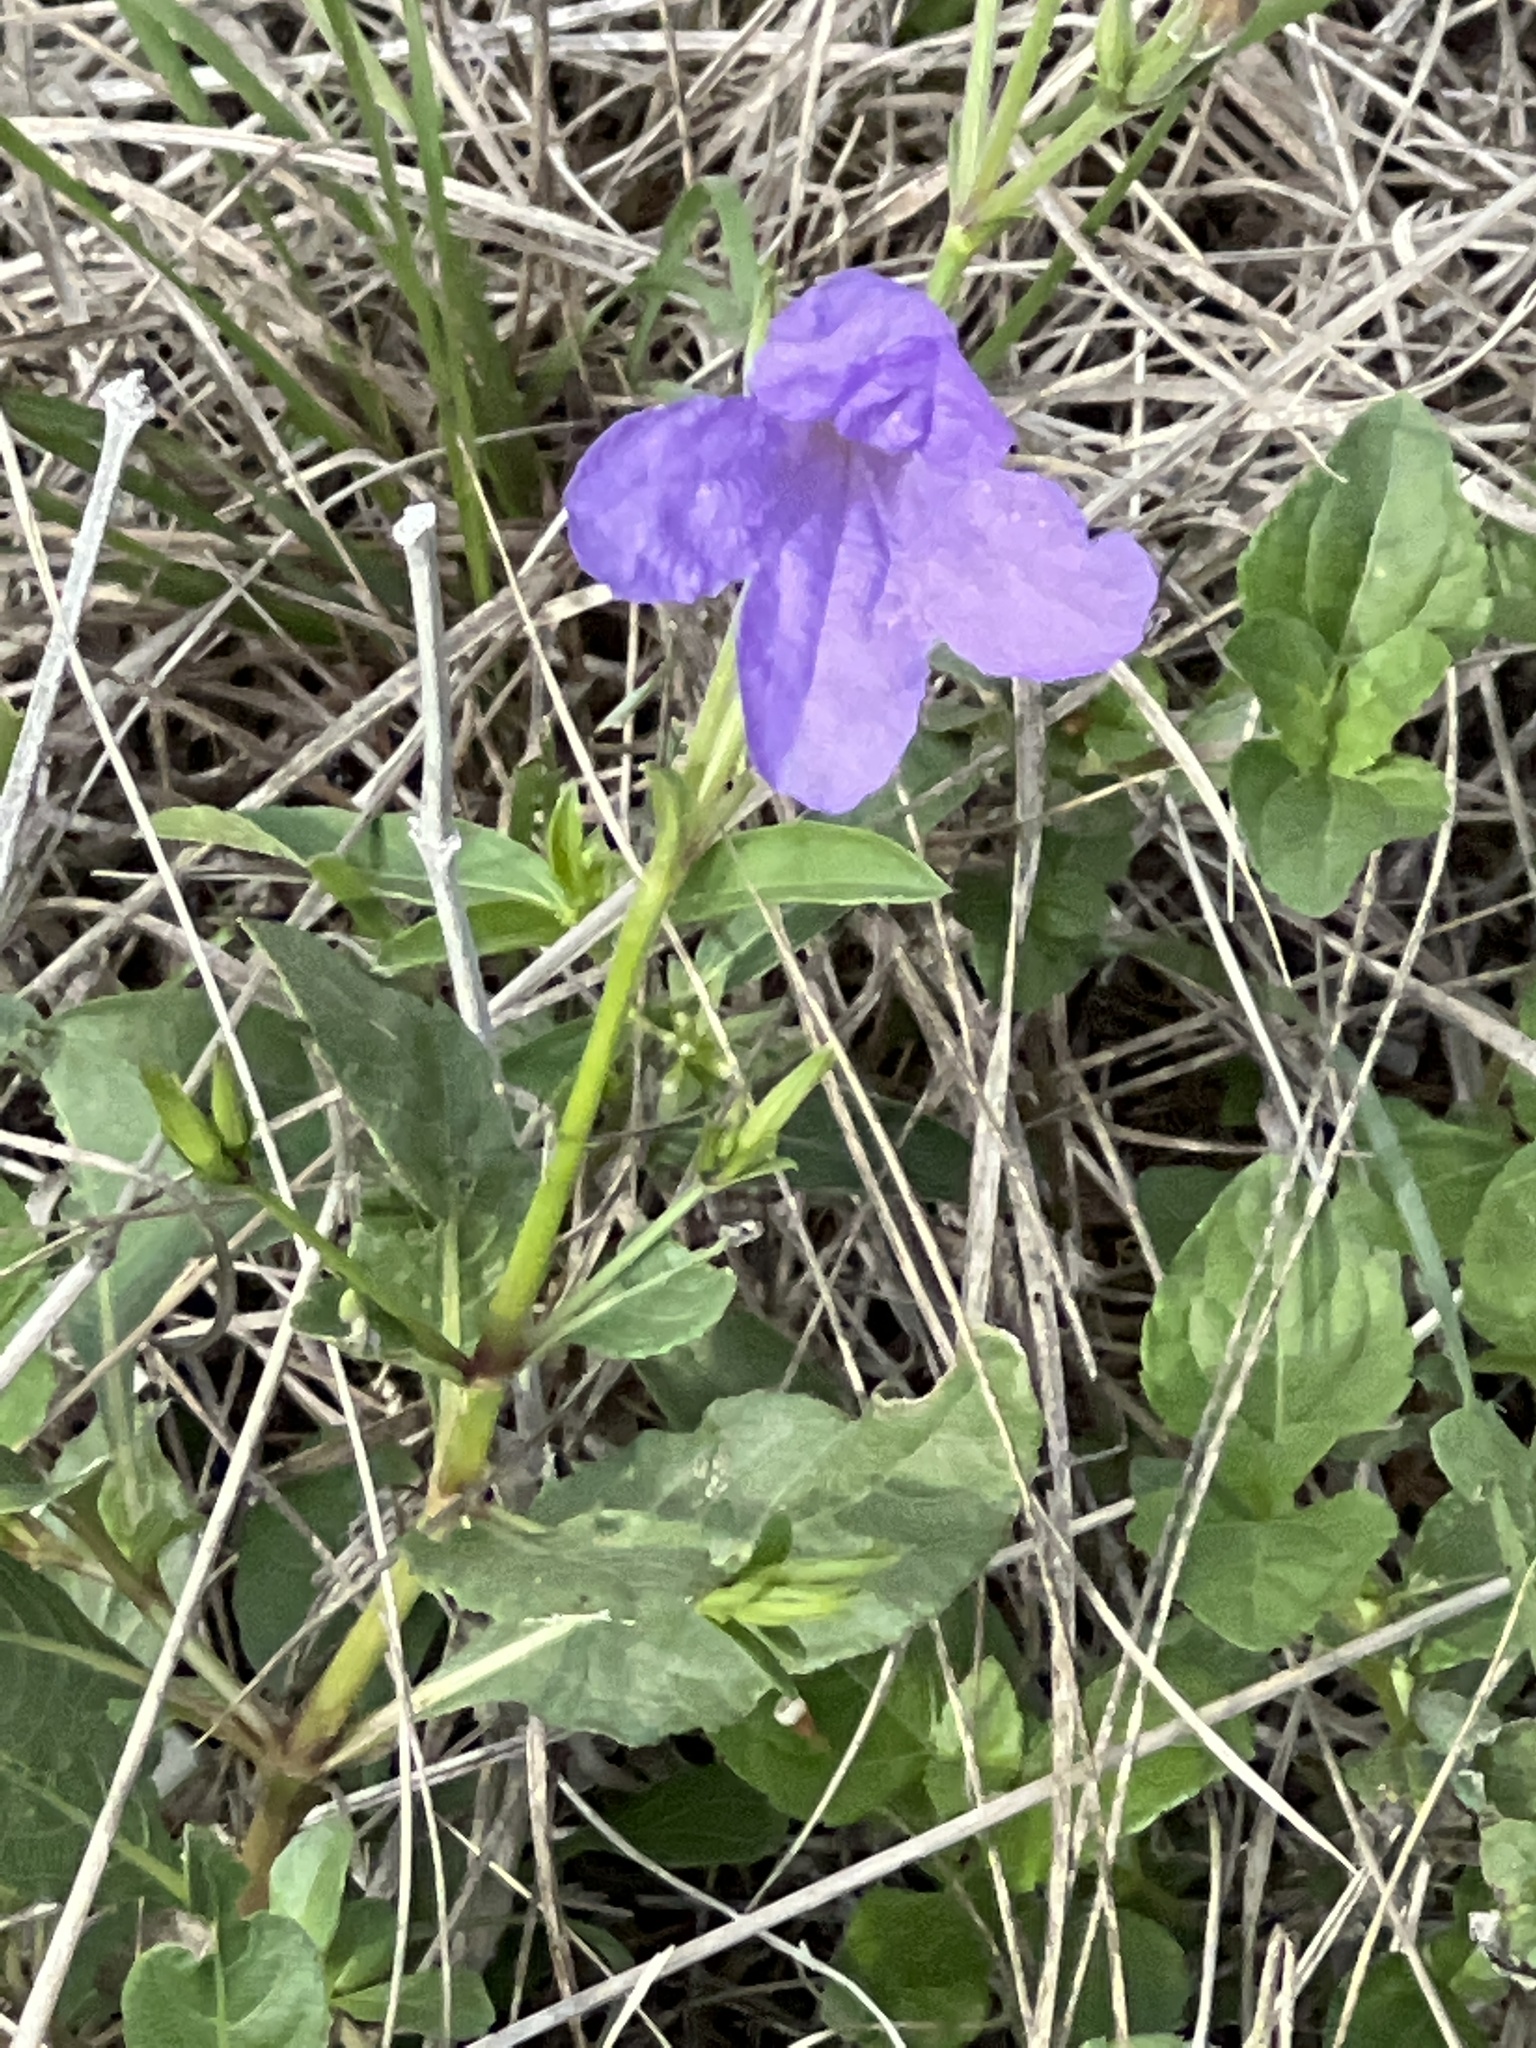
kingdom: Plantae
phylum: Tracheophyta
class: Magnoliopsida
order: Lamiales
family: Acanthaceae
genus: Ruellia
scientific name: Ruellia ciliatiflora
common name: Hairyflower wild petunia
